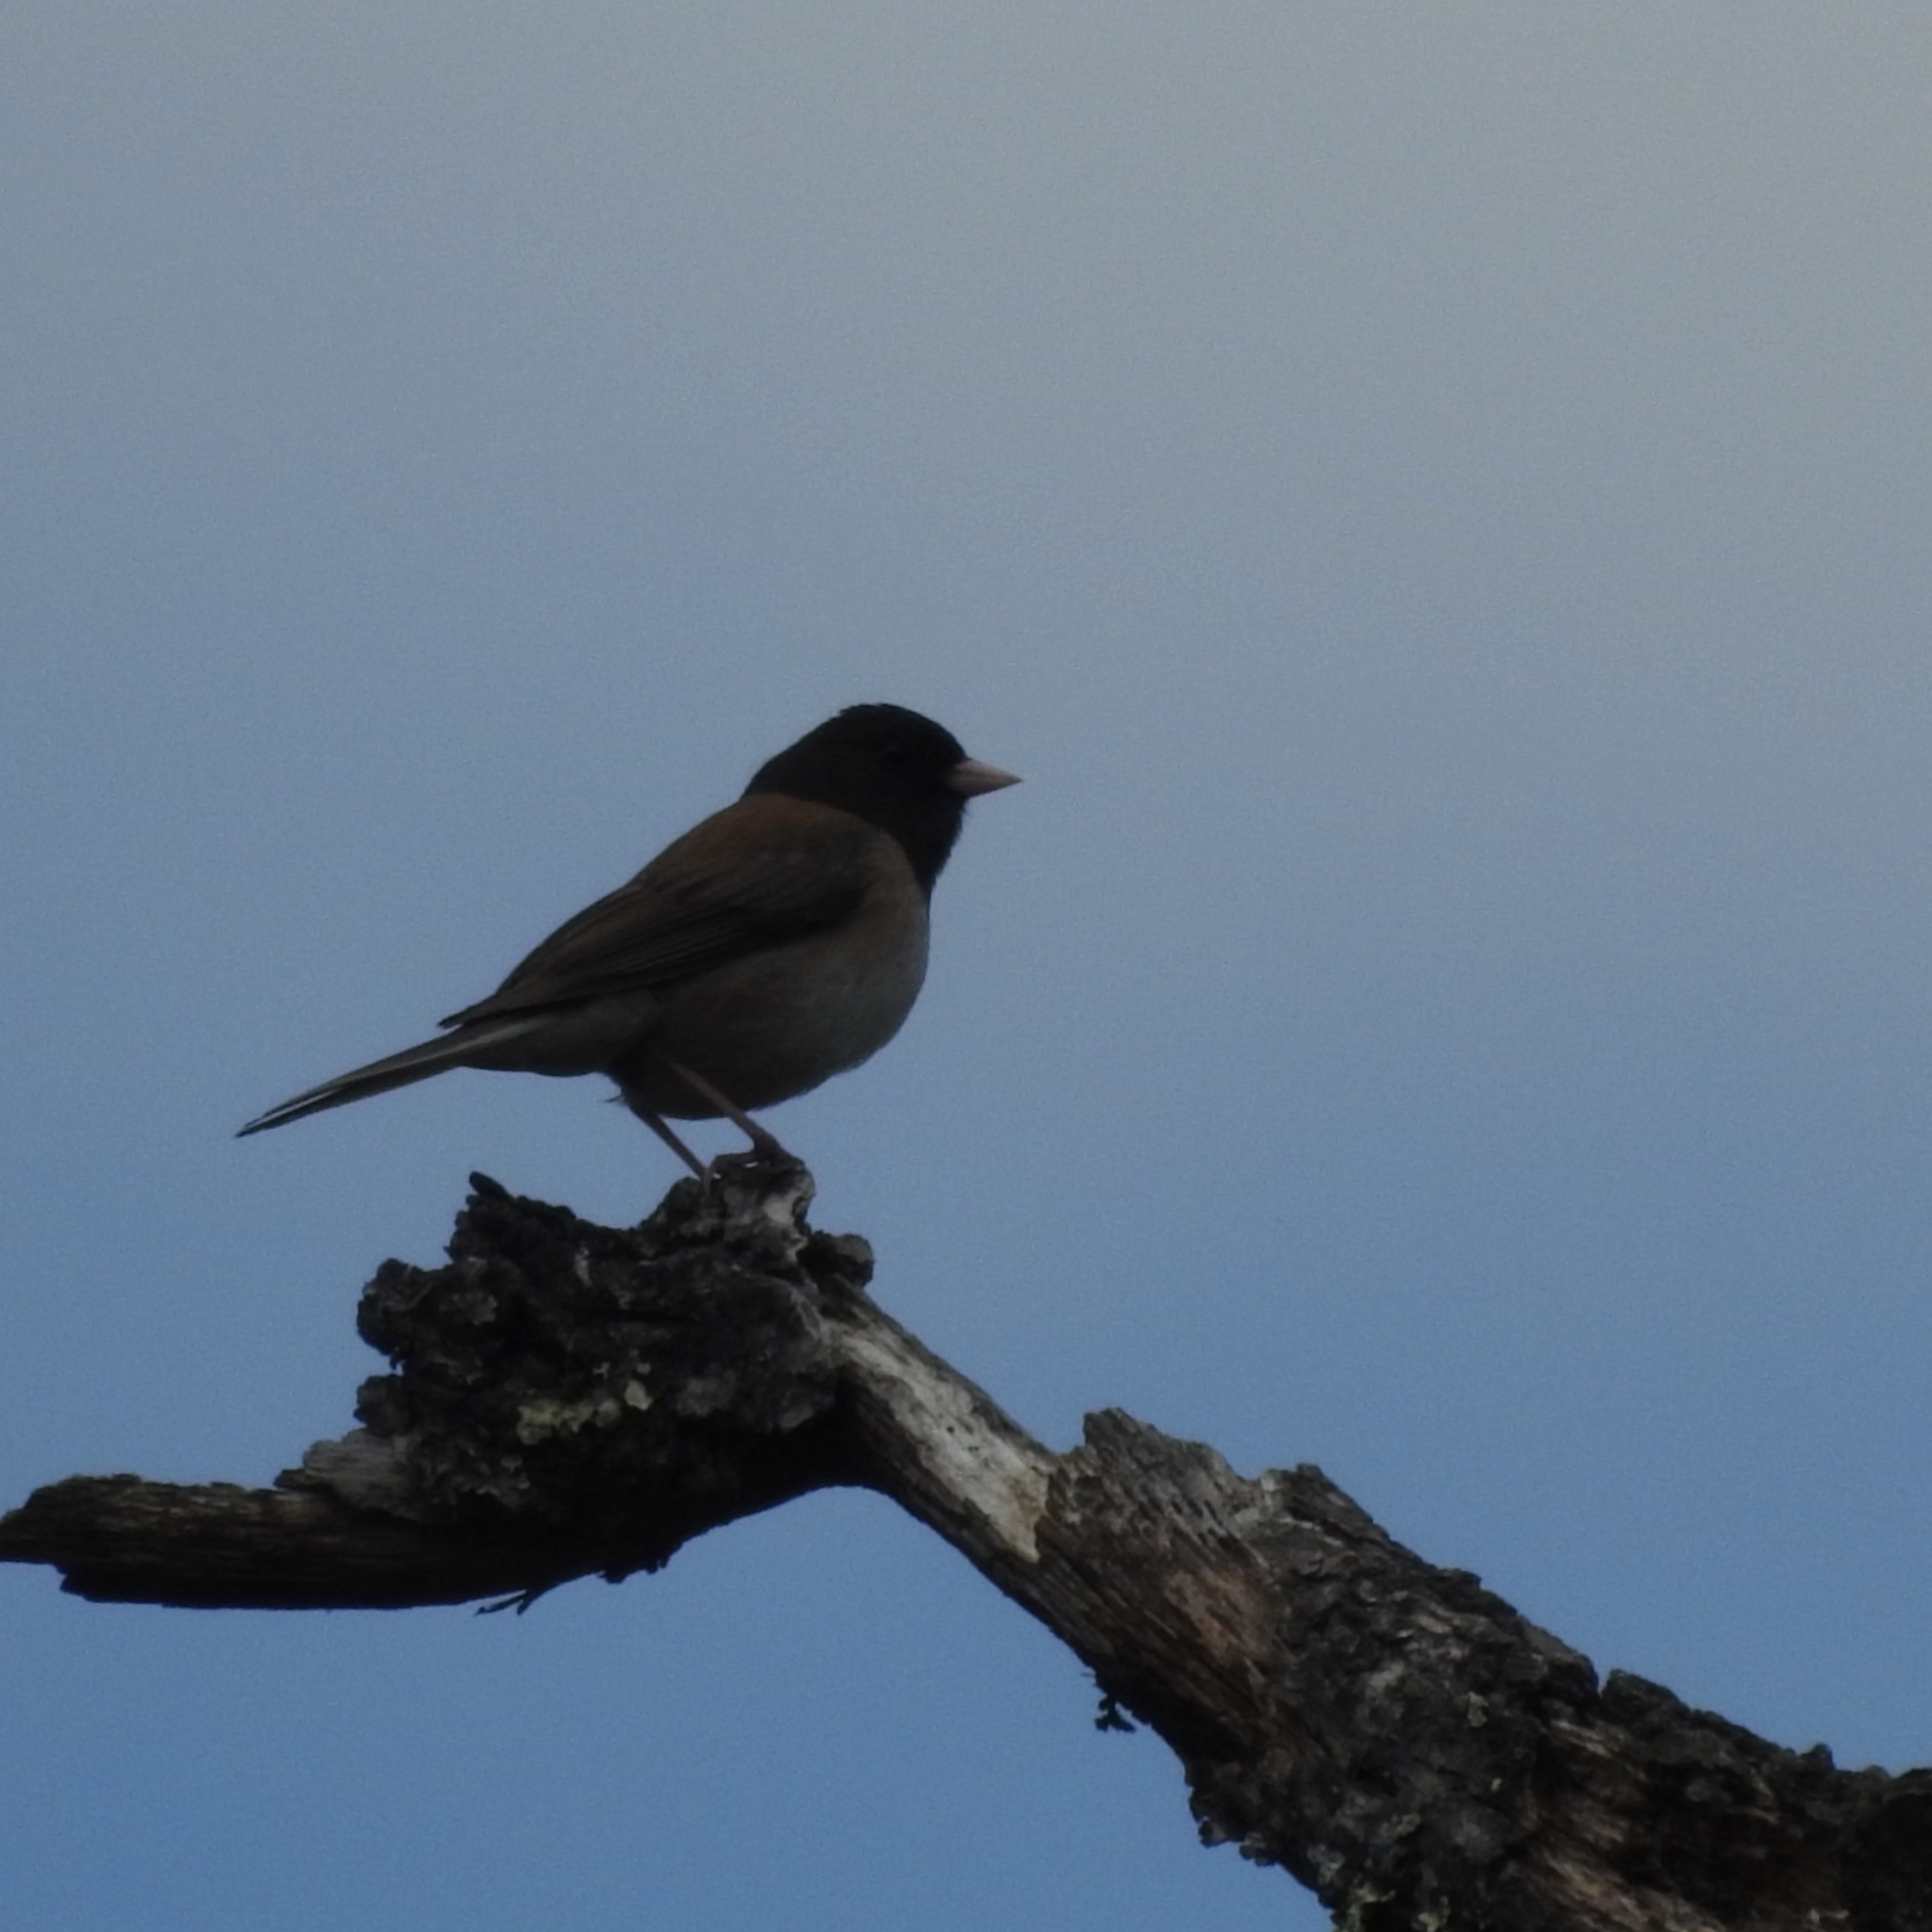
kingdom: Animalia
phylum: Chordata
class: Aves
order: Passeriformes
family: Passerellidae
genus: Junco
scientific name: Junco hyemalis
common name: Dark-eyed junco
